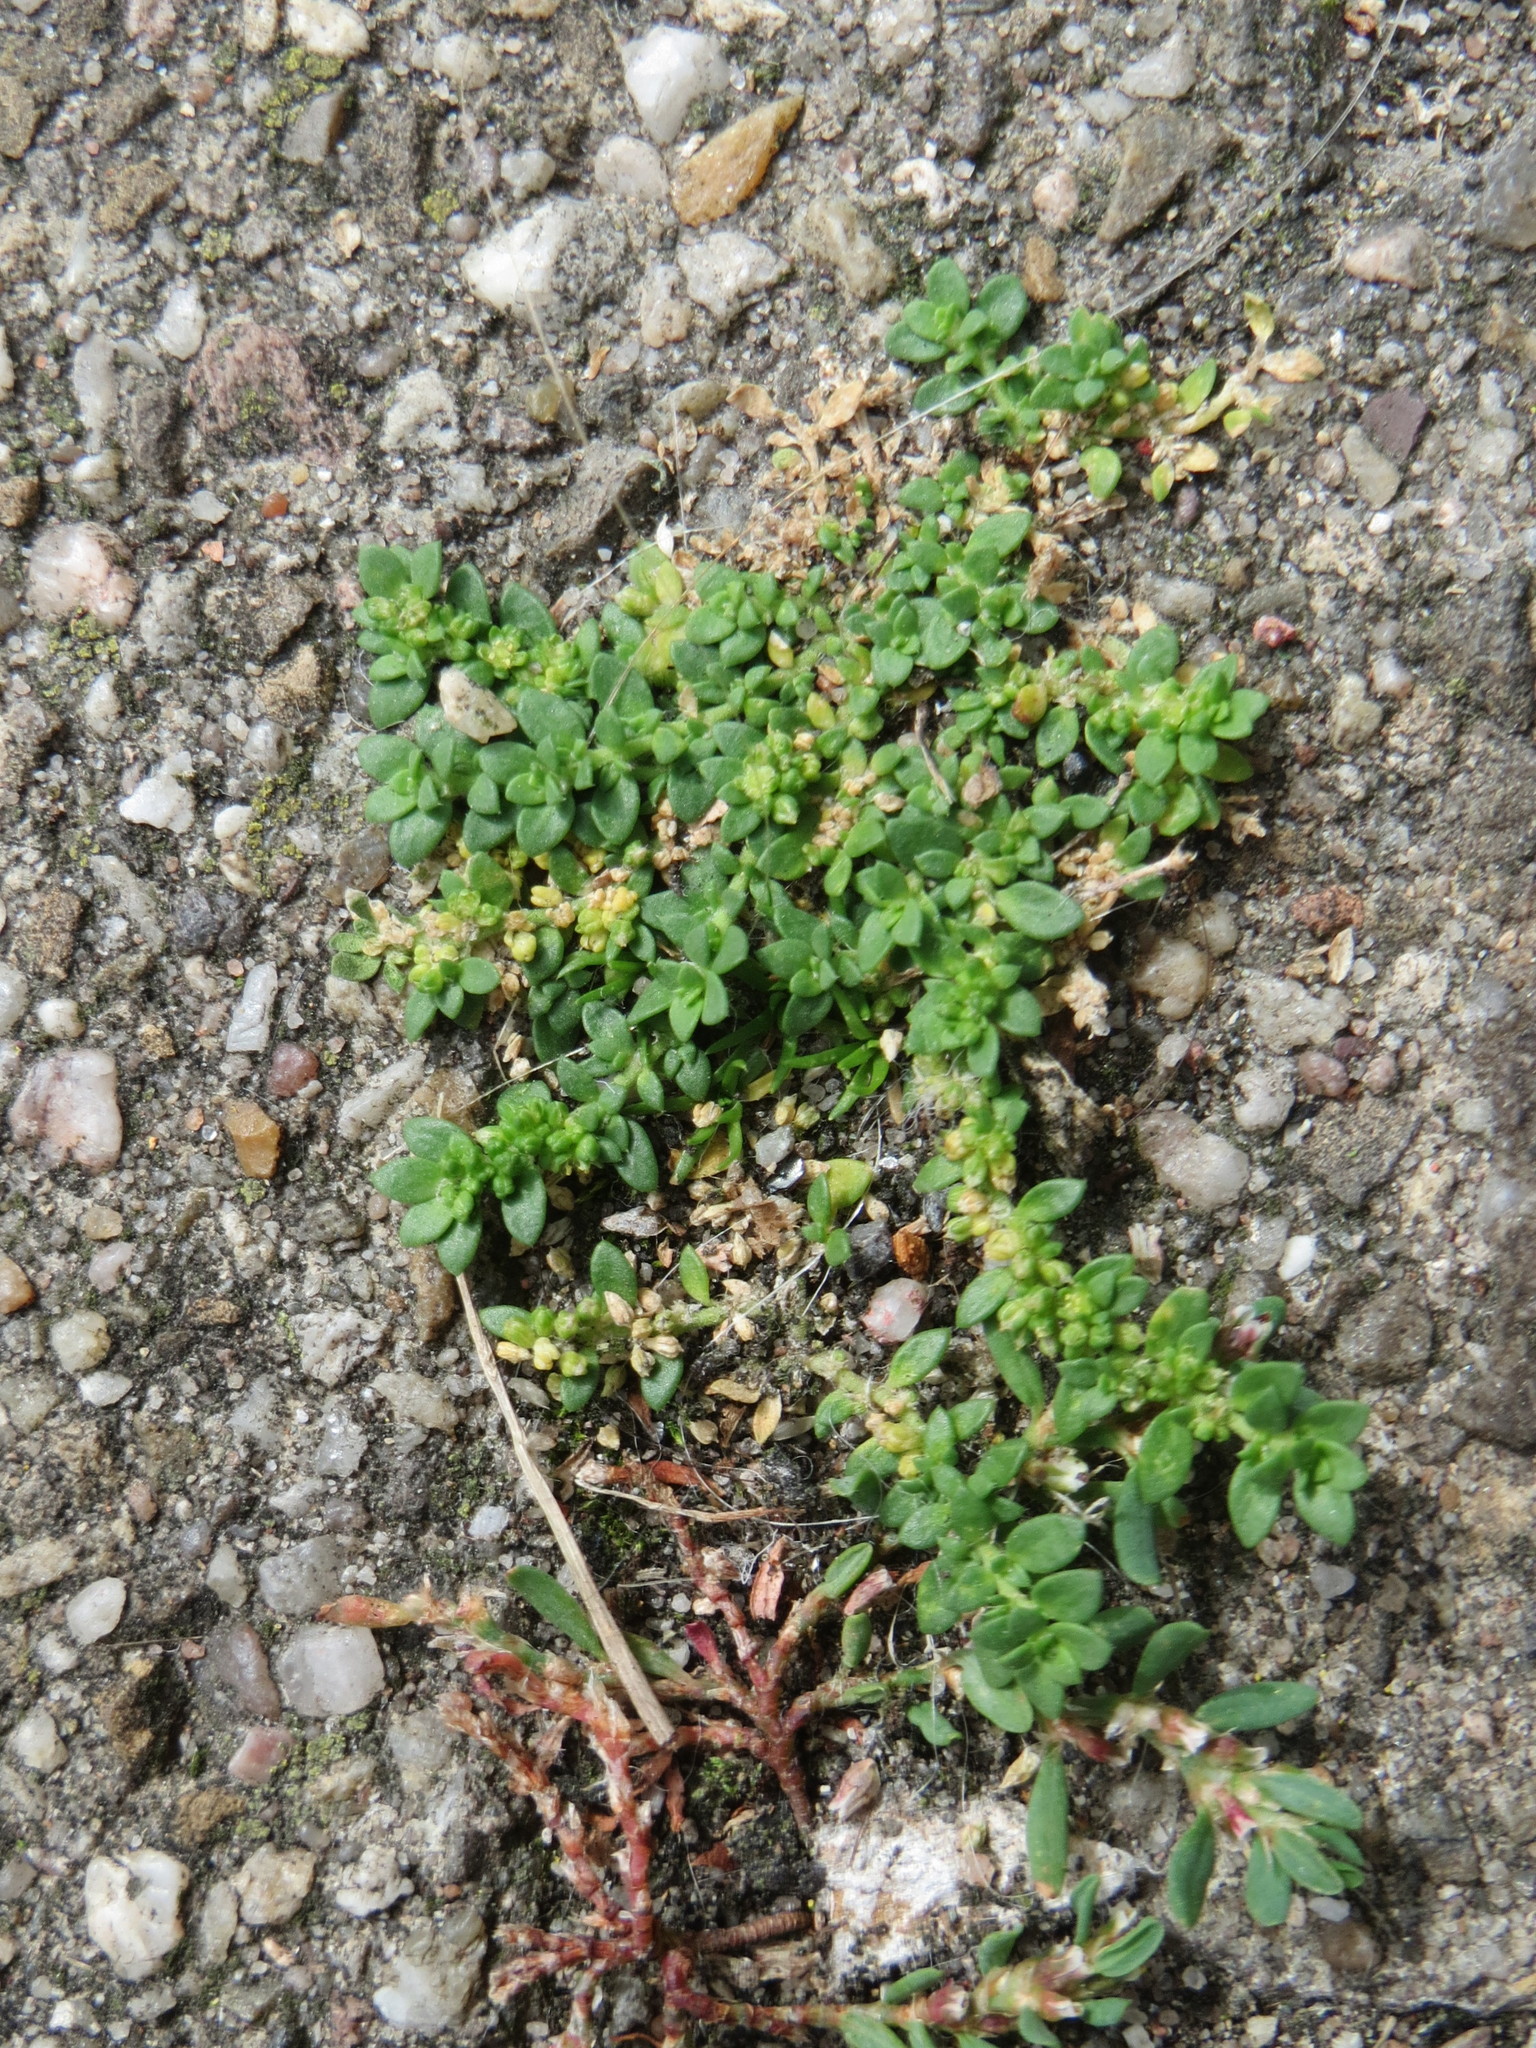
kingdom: Plantae
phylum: Tracheophyta
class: Magnoliopsida
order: Caryophyllales
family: Caryophyllaceae
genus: Herniaria
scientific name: Herniaria glabra
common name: Smooth rupturewort
